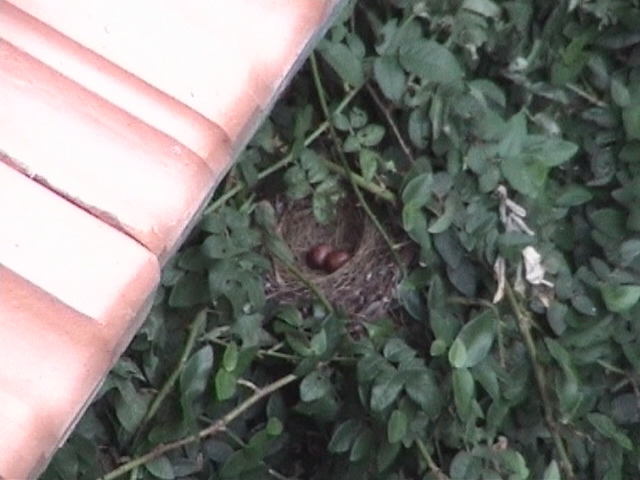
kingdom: Animalia
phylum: Chordata
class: Aves
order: Passeriformes
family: Pycnonotidae
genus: Pycnonotus
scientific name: Pycnonotus jocosus
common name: Red-whiskered bulbul
